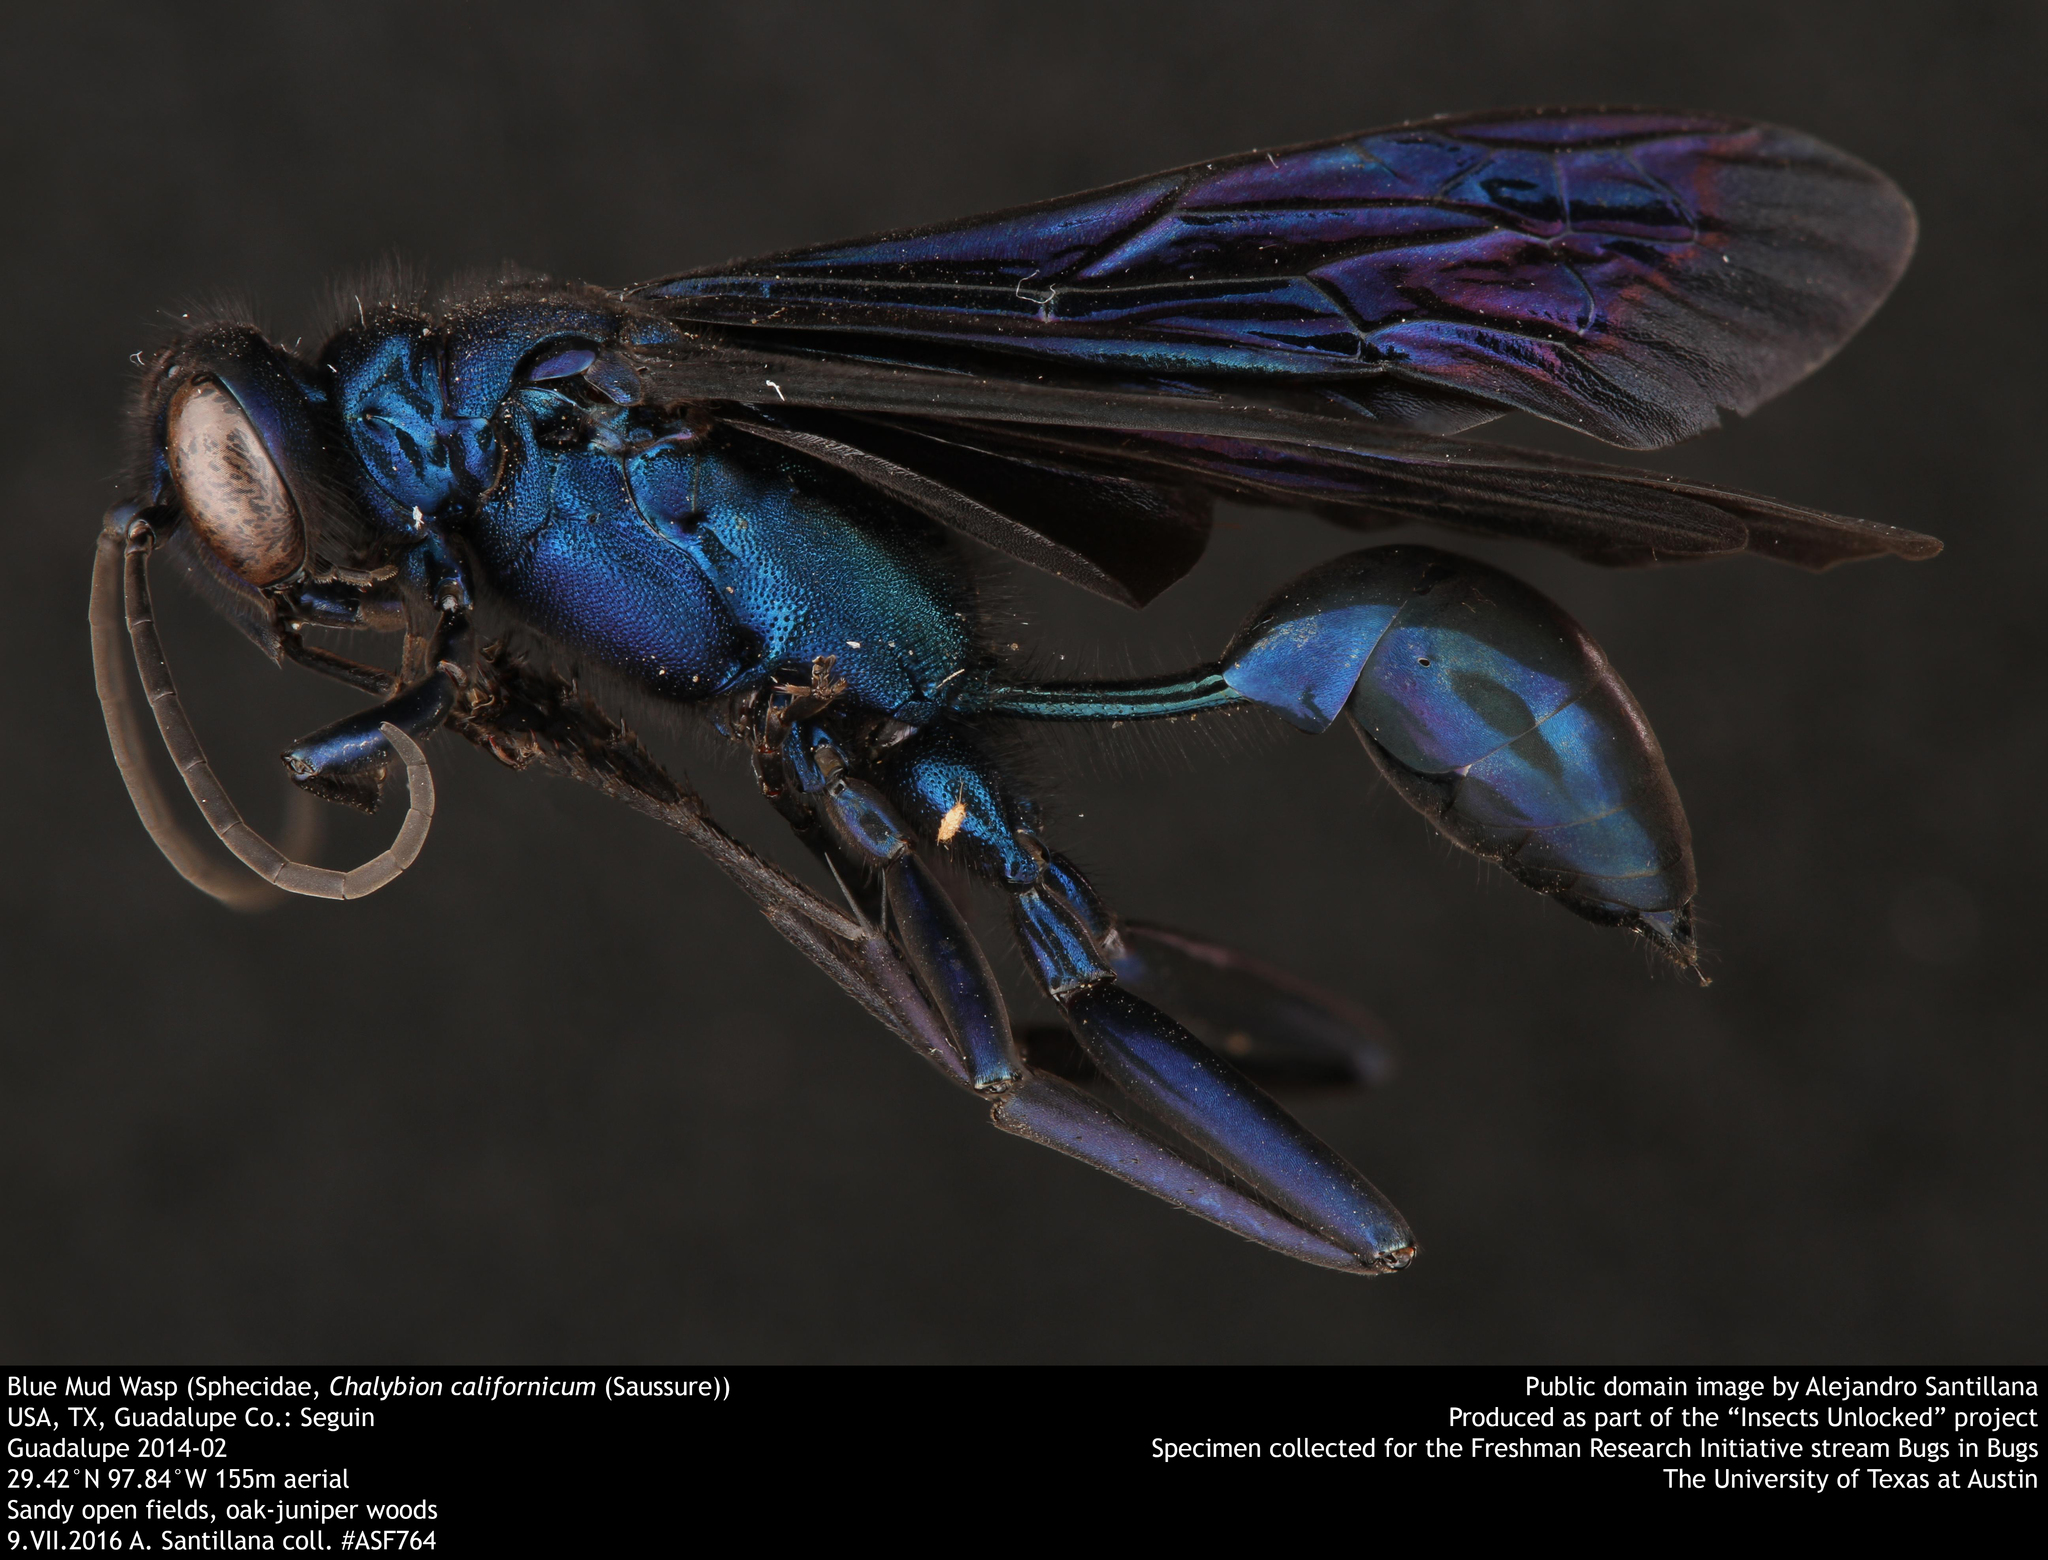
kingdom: Animalia
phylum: Arthropoda
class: Insecta
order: Hymenoptera
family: Sphecidae
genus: Chalybion
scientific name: Chalybion californicum
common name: Mud dauber
